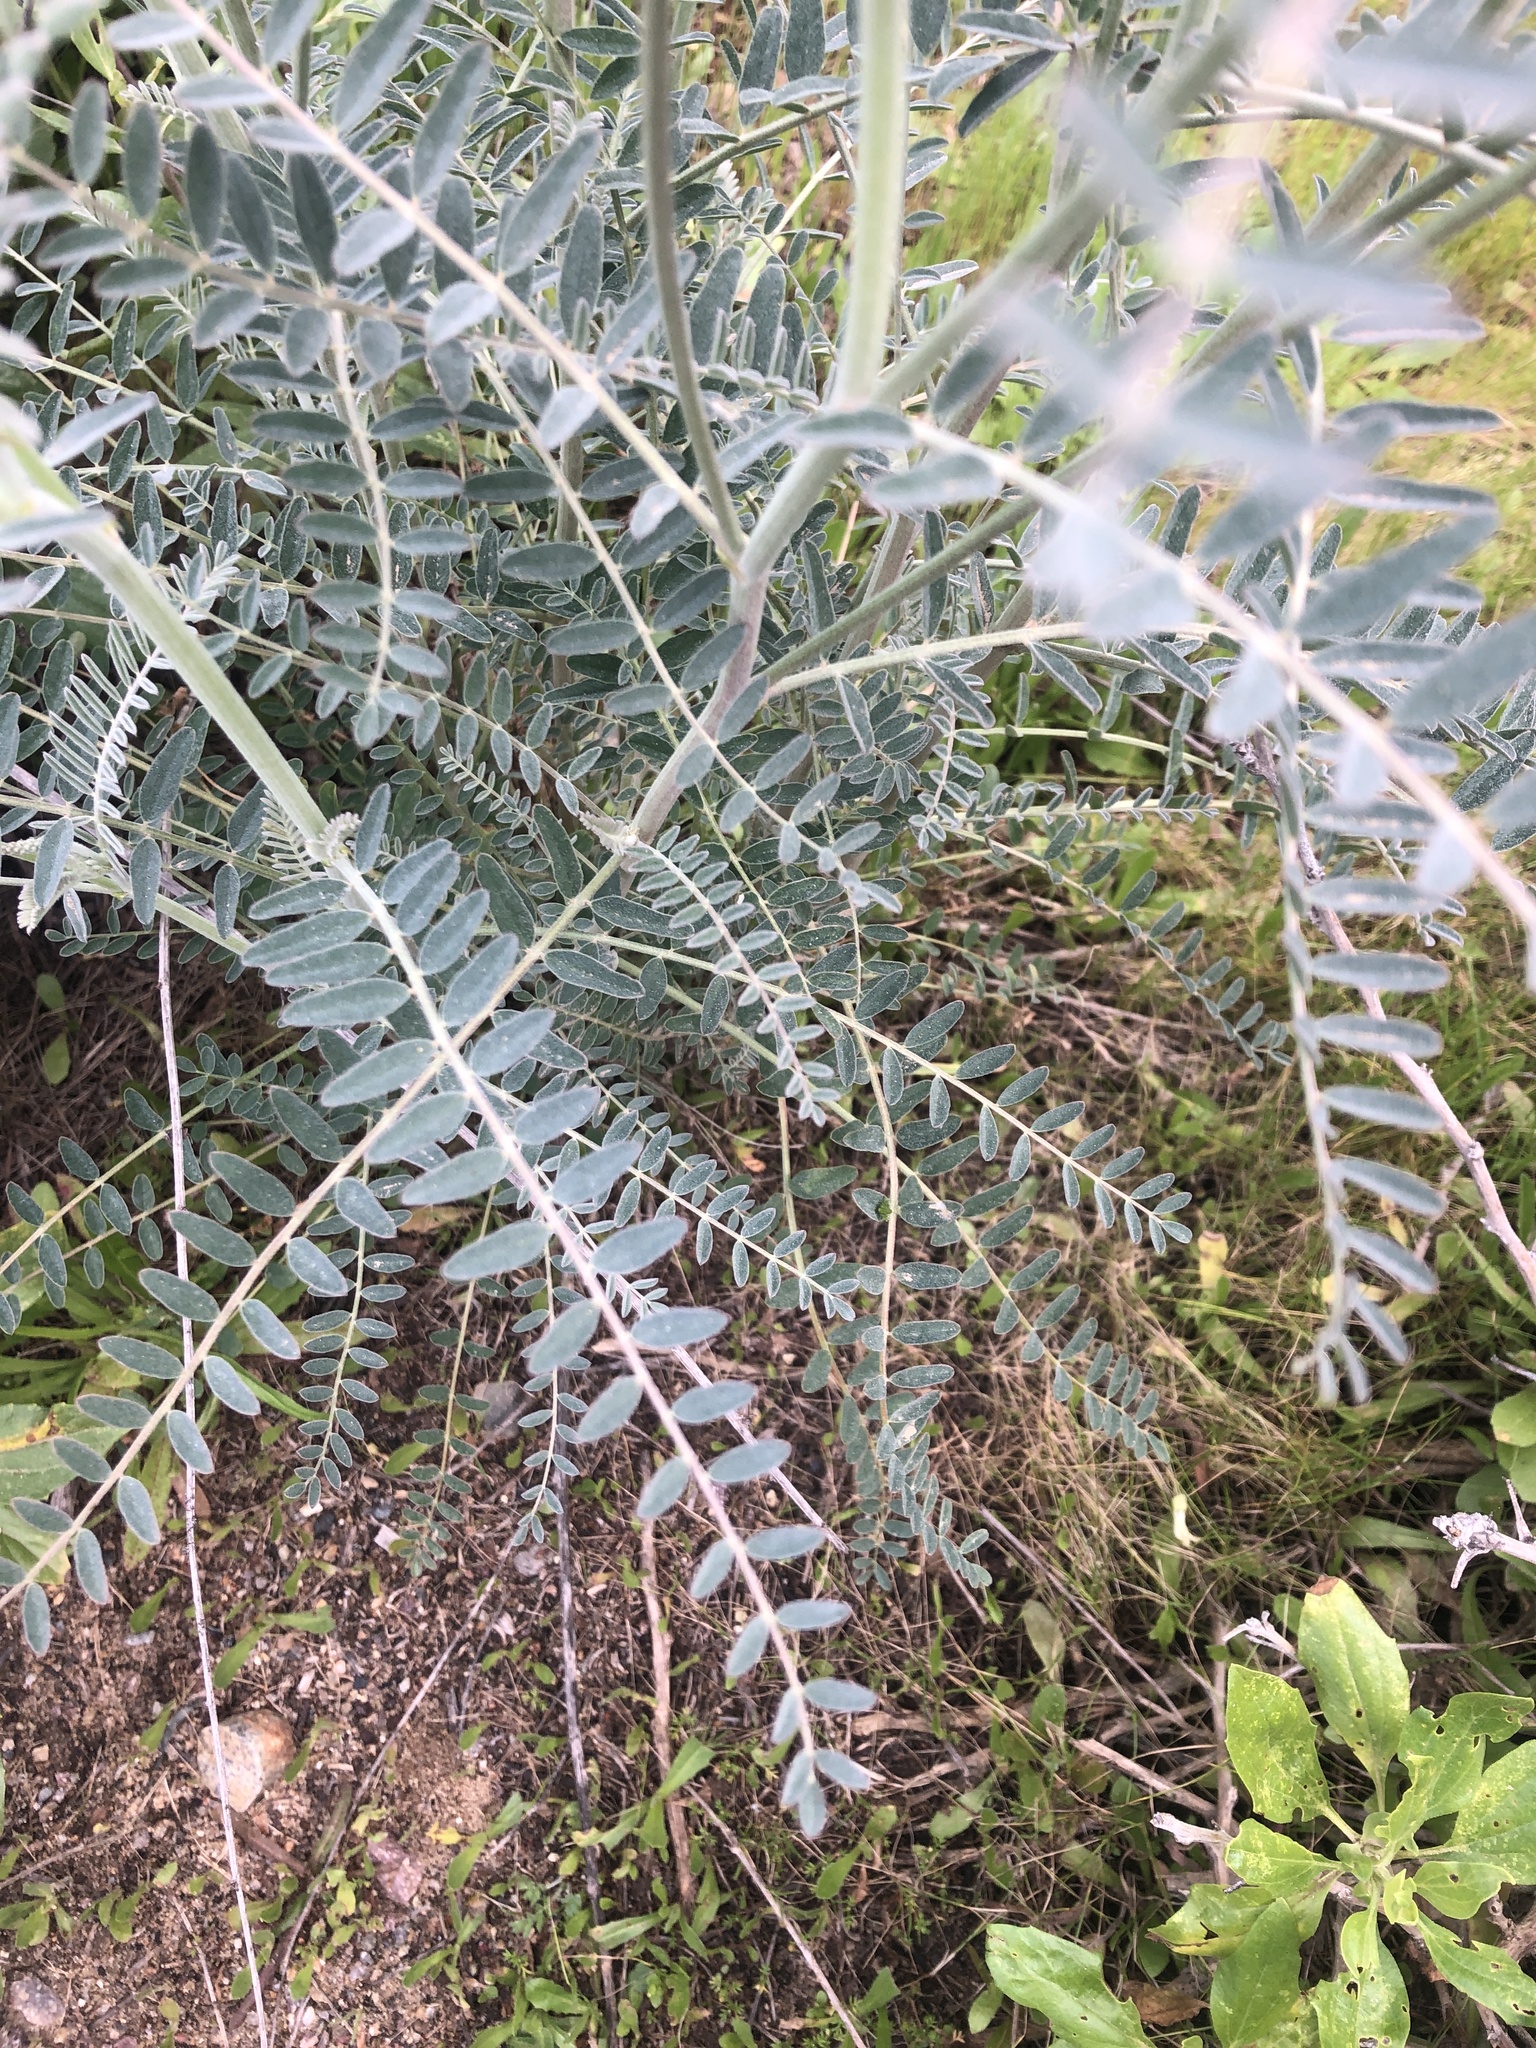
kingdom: Plantae
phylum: Tracheophyta
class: Magnoliopsida
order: Fabales
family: Fabaceae
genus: Astragalus
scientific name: Astragalus trichopodus
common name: Santa barbara milk-vetch
